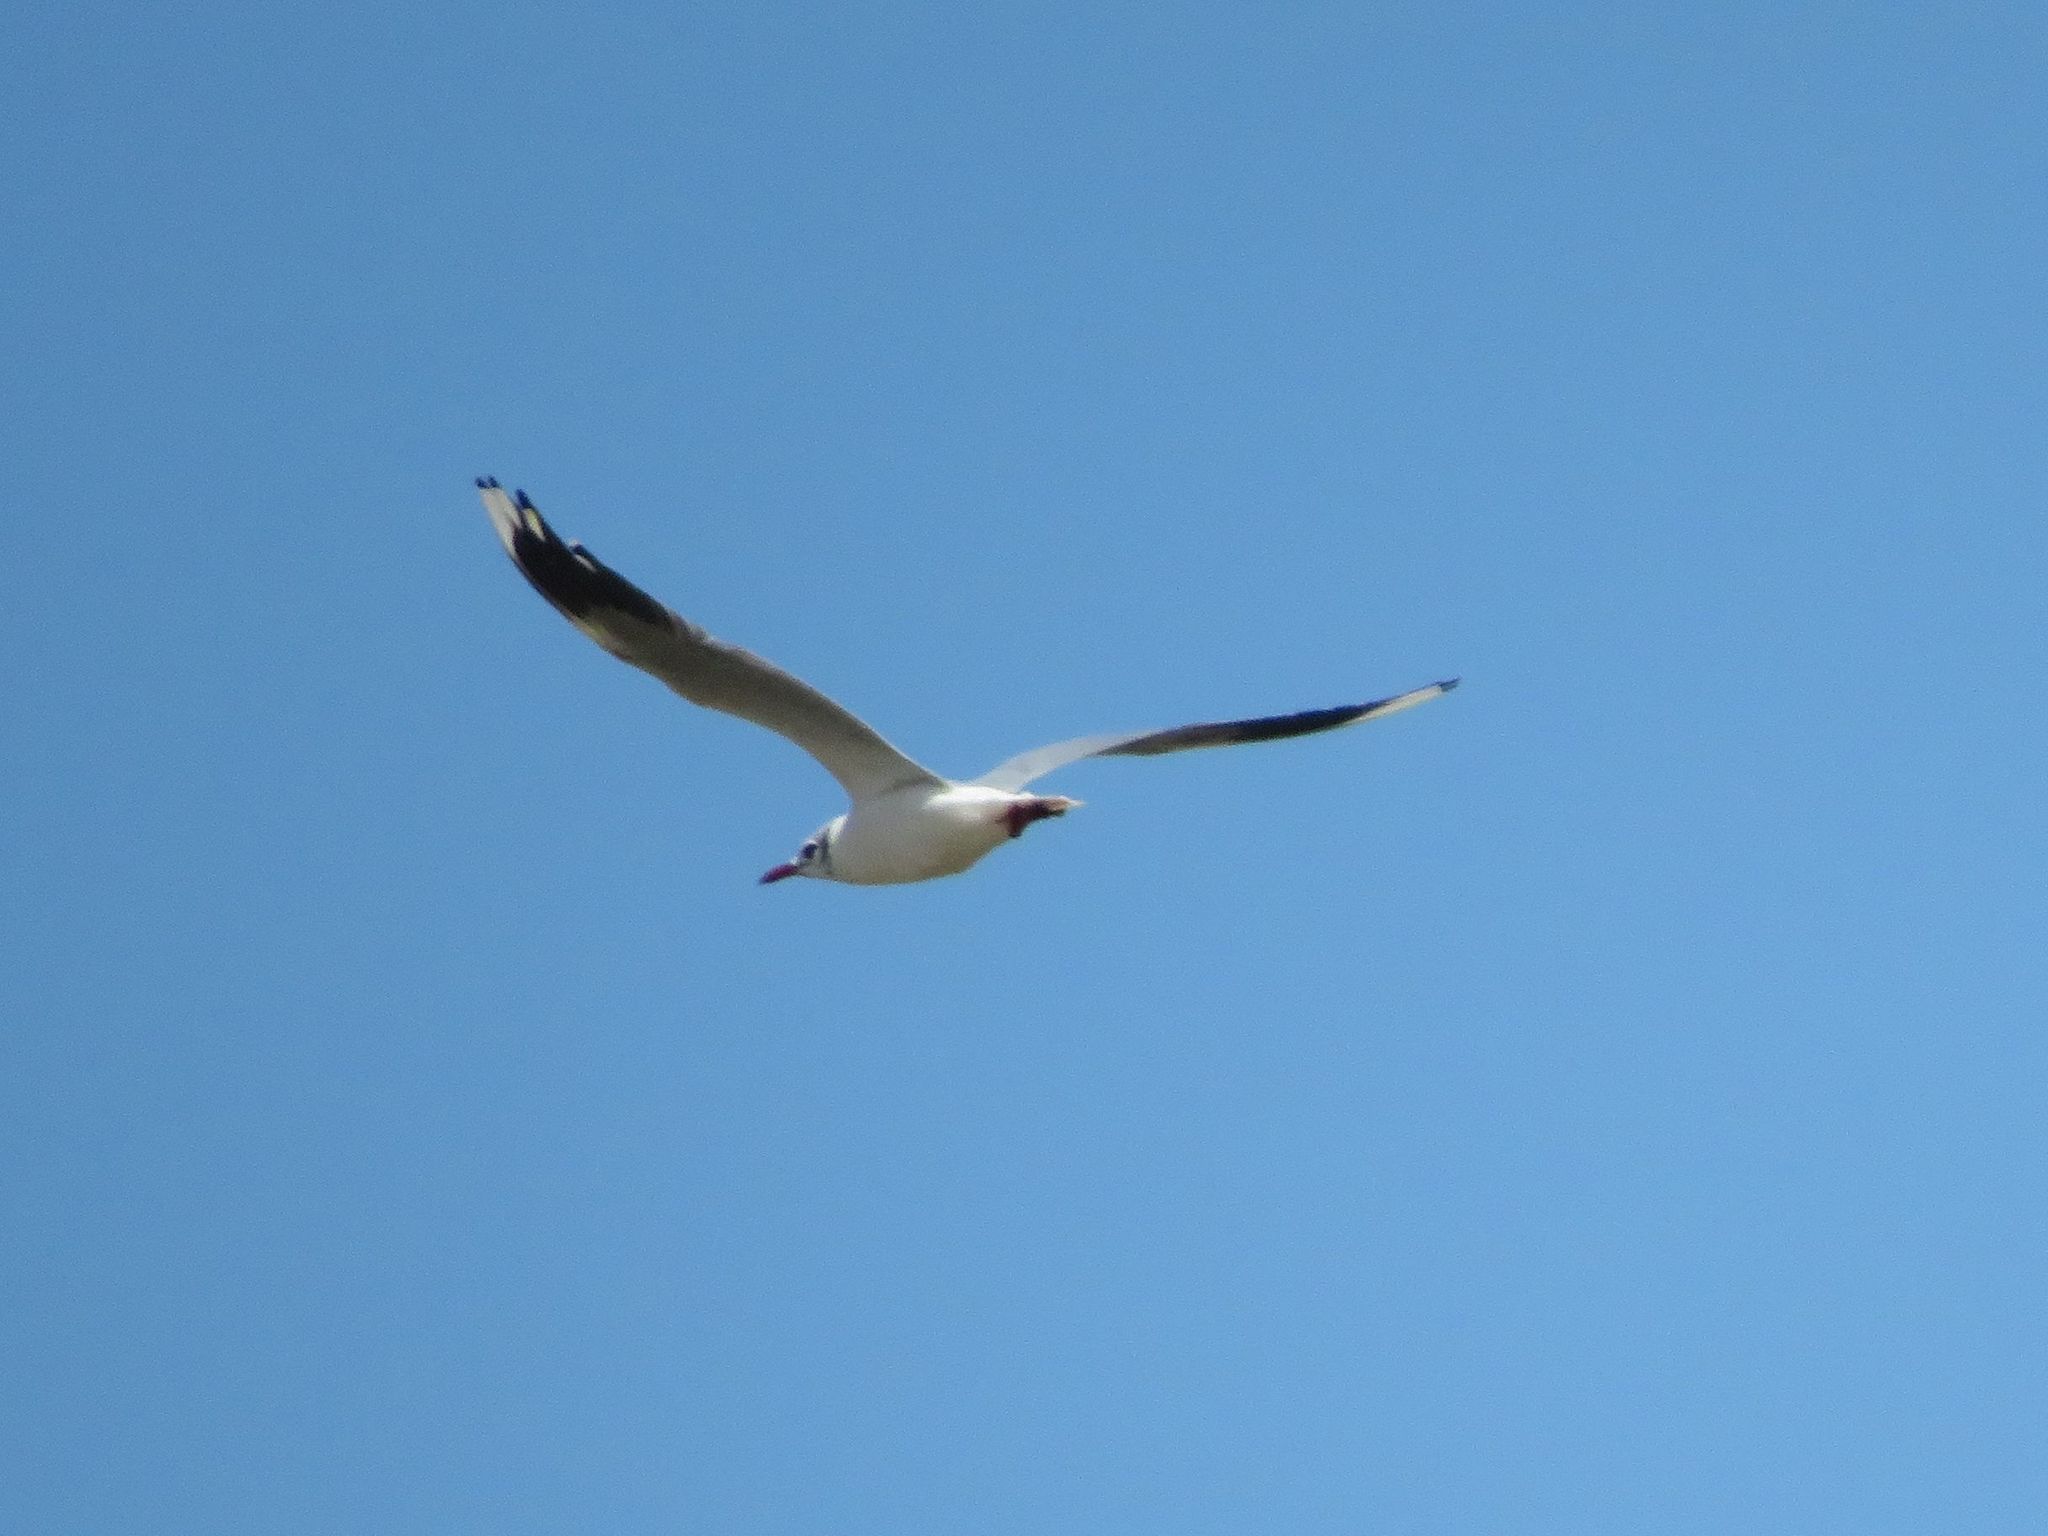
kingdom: Animalia
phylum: Chordata
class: Aves
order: Charadriiformes
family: Laridae
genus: Chroicocephalus
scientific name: Chroicocephalus maculipennis
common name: Brown-hooded gull
